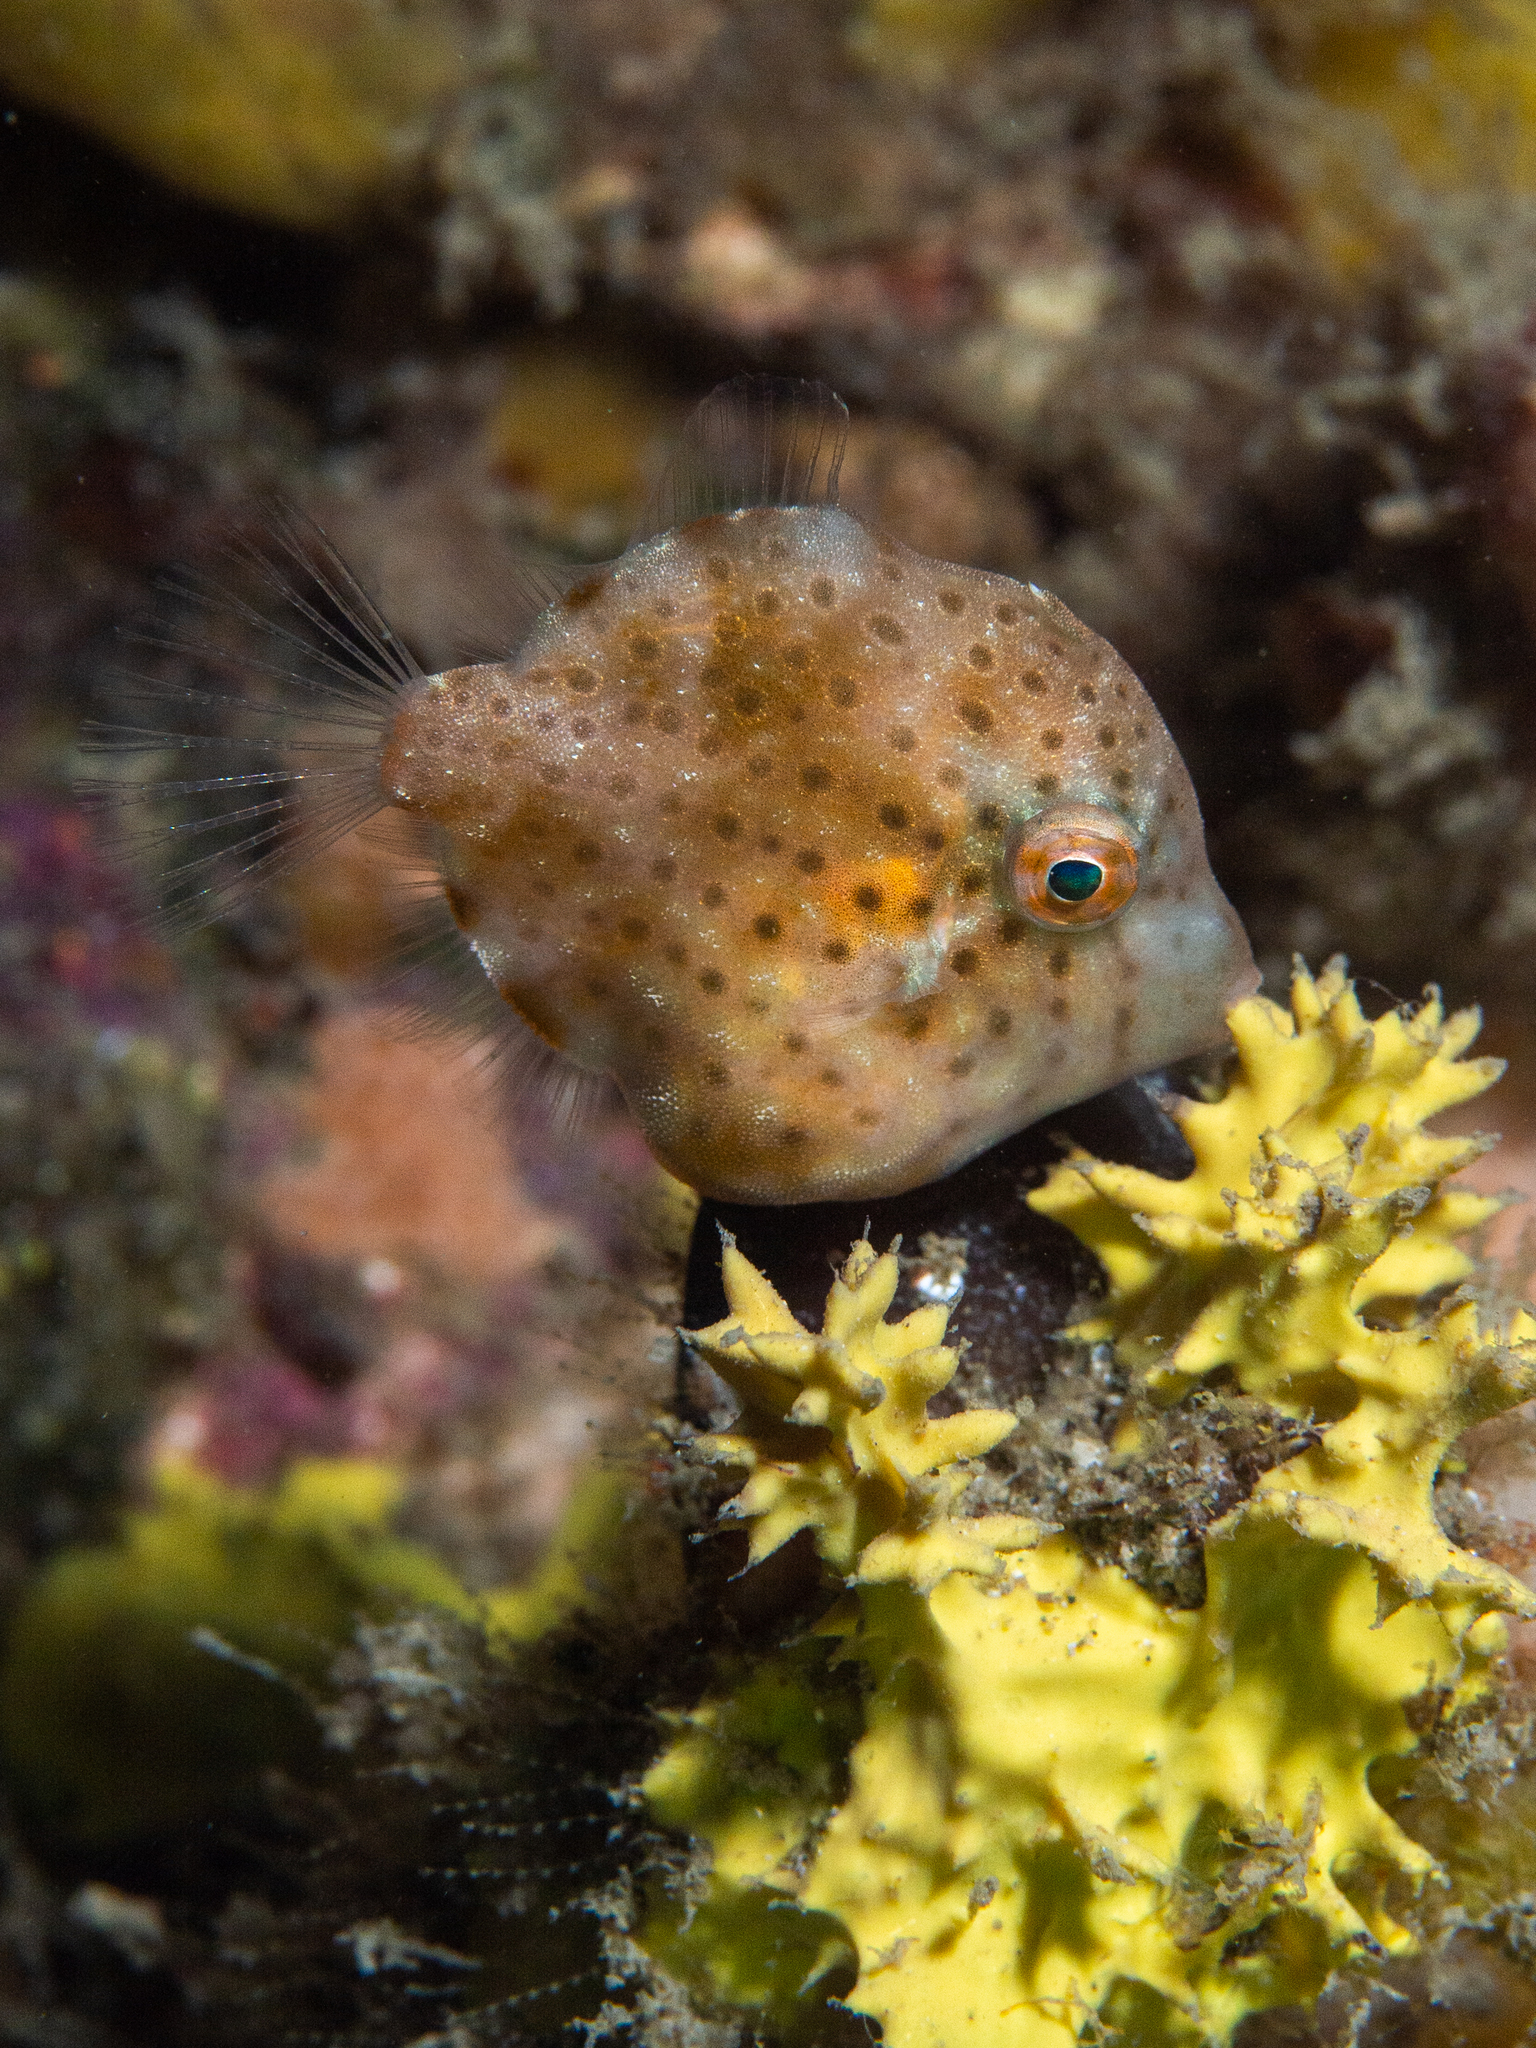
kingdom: Animalia
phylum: Chordata
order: Tetraodontiformes
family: Monacanthidae
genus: Brachaluteres
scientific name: Brachaluteres jacksonianus
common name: Pigmy leatherjacket
